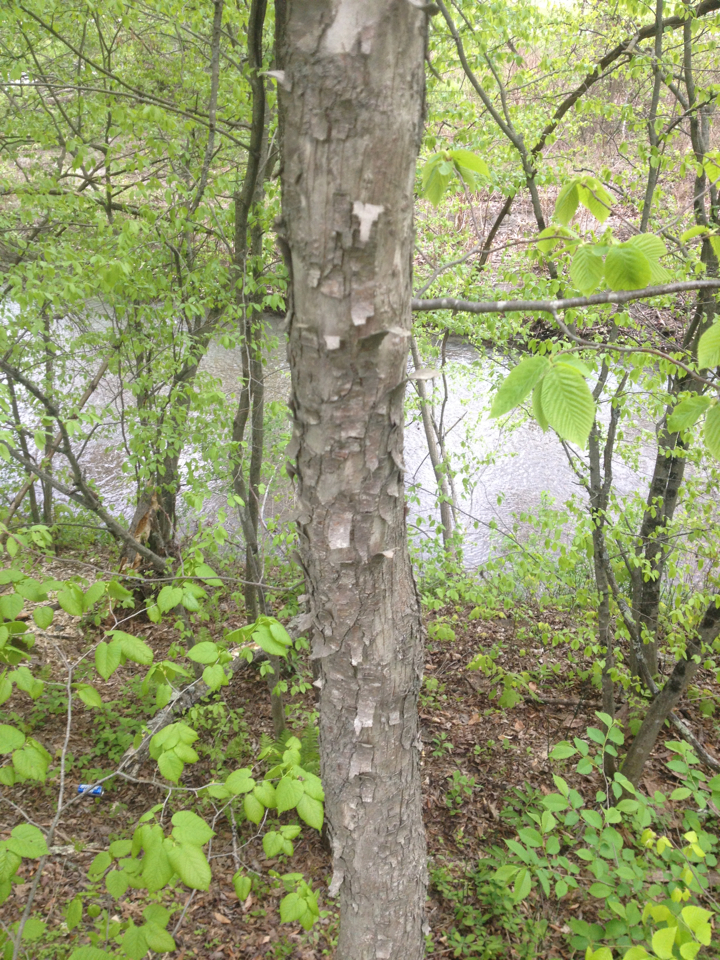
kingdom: Plantae
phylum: Tracheophyta
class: Magnoliopsida
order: Fagales
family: Betulaceae
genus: Ostrya
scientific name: Ostrya virginiana
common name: Ironwood
